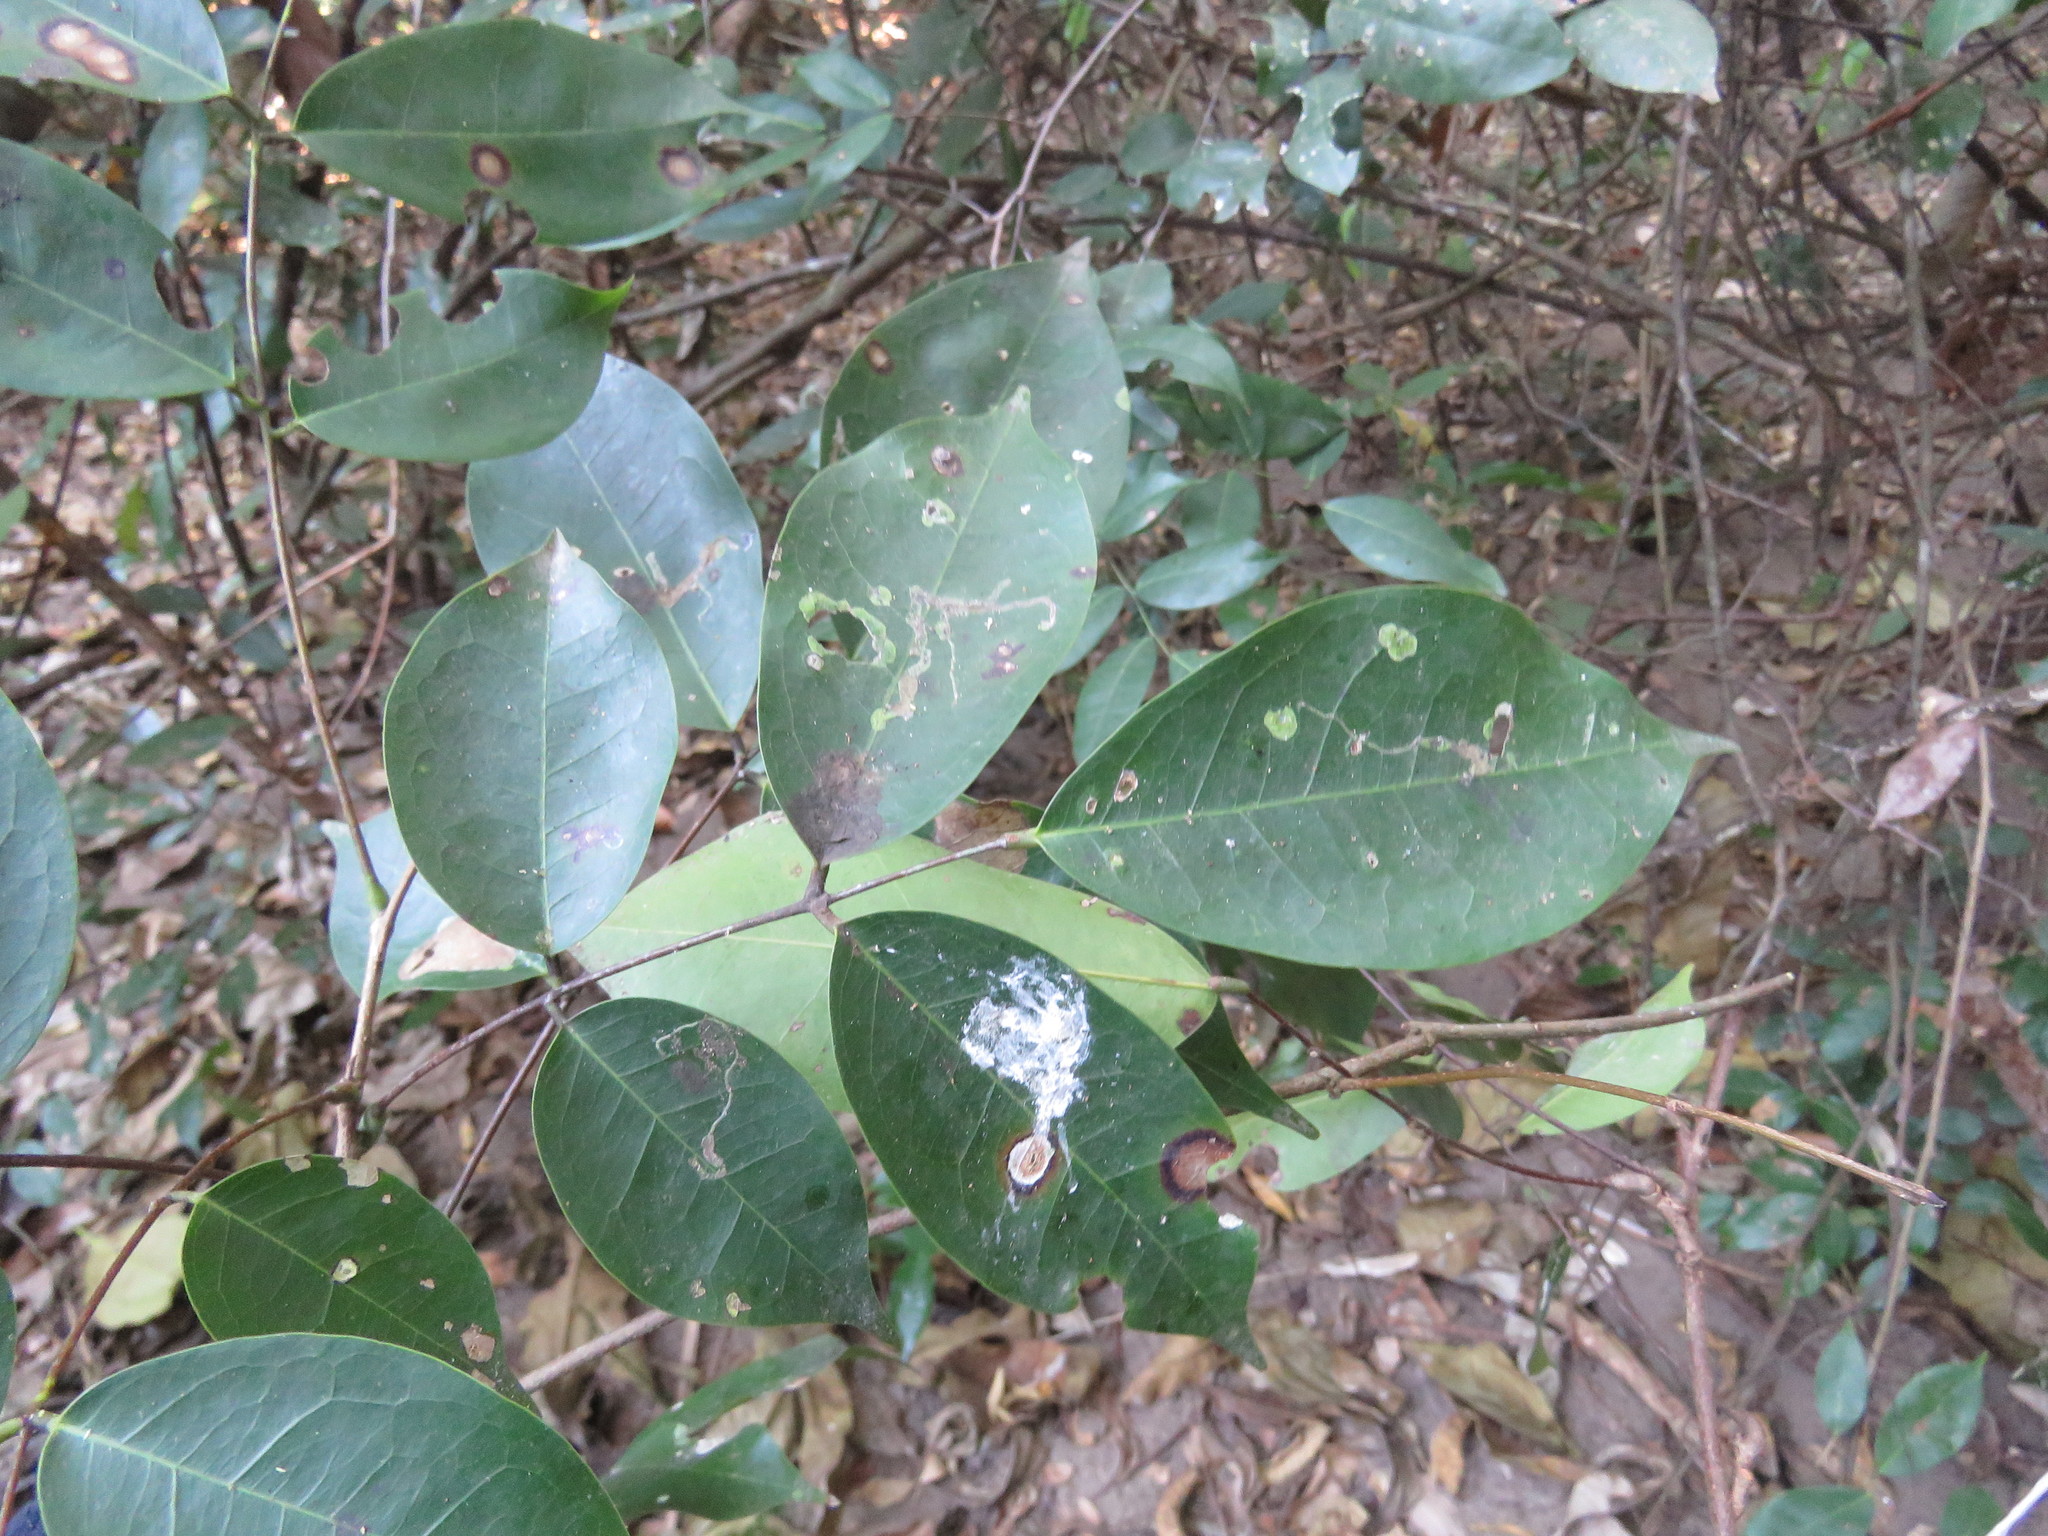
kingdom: Plantae
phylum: Tracheophyta
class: Magnoliopsida
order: Oxalidales
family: Connaraceae
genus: Rourea
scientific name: Rourea glabra
